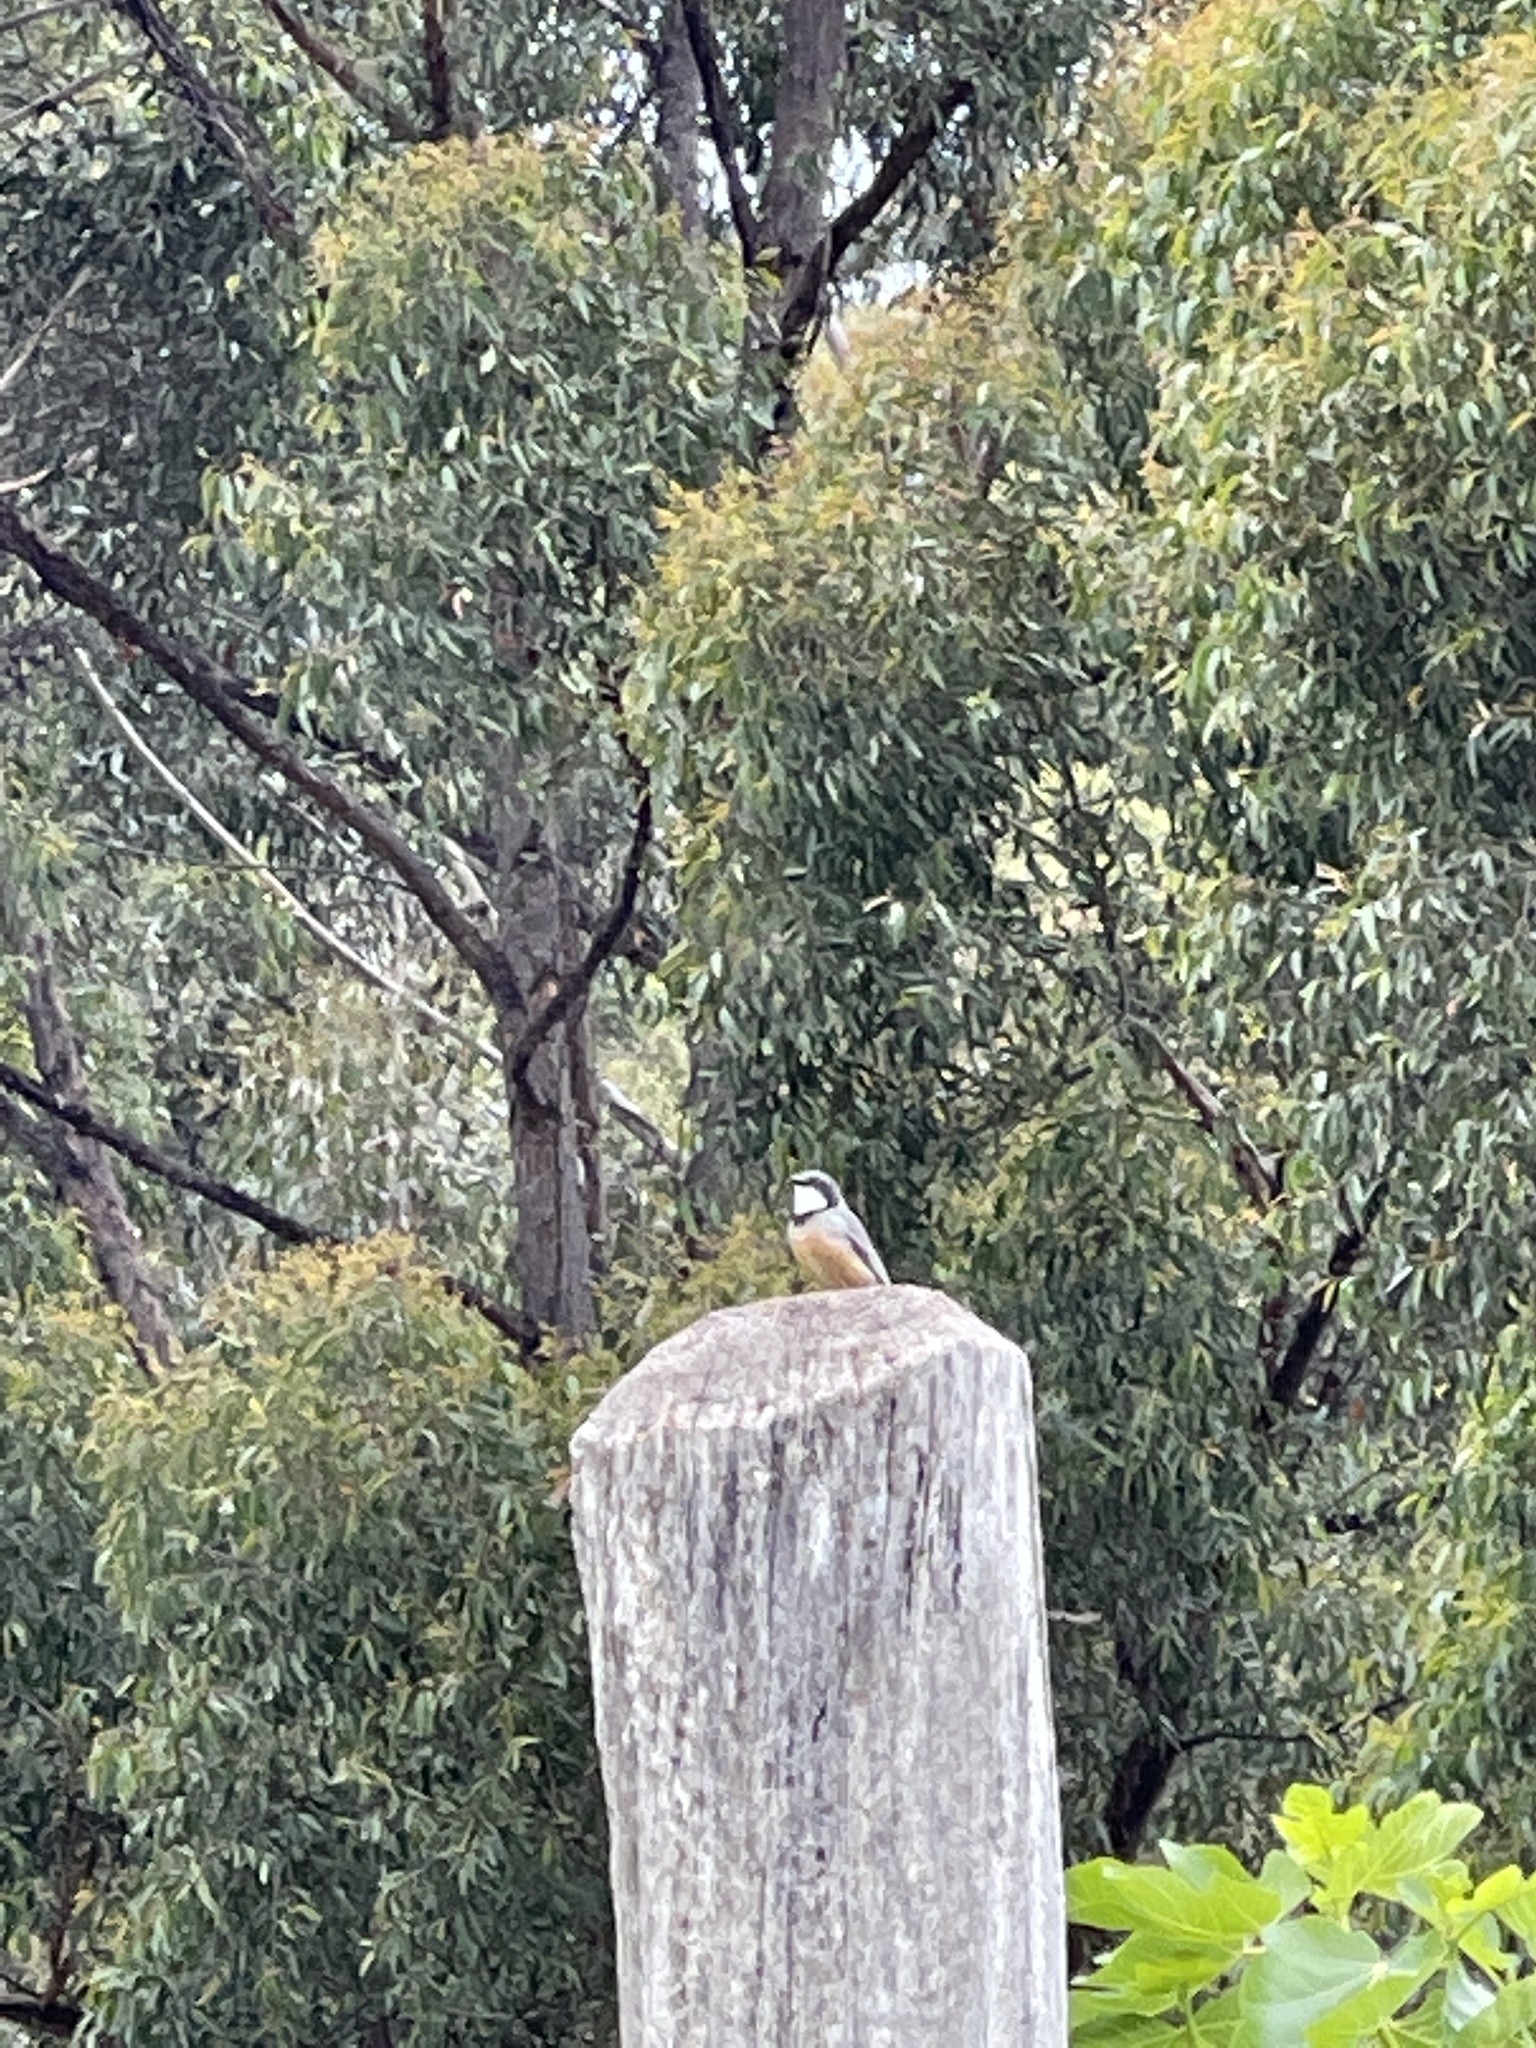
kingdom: Animalia
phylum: Chordata
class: Aves
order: Passeriformes
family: Pachycephalidae
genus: Pachycephala
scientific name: Pachycephala rufiventris
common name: Rufous whistler
